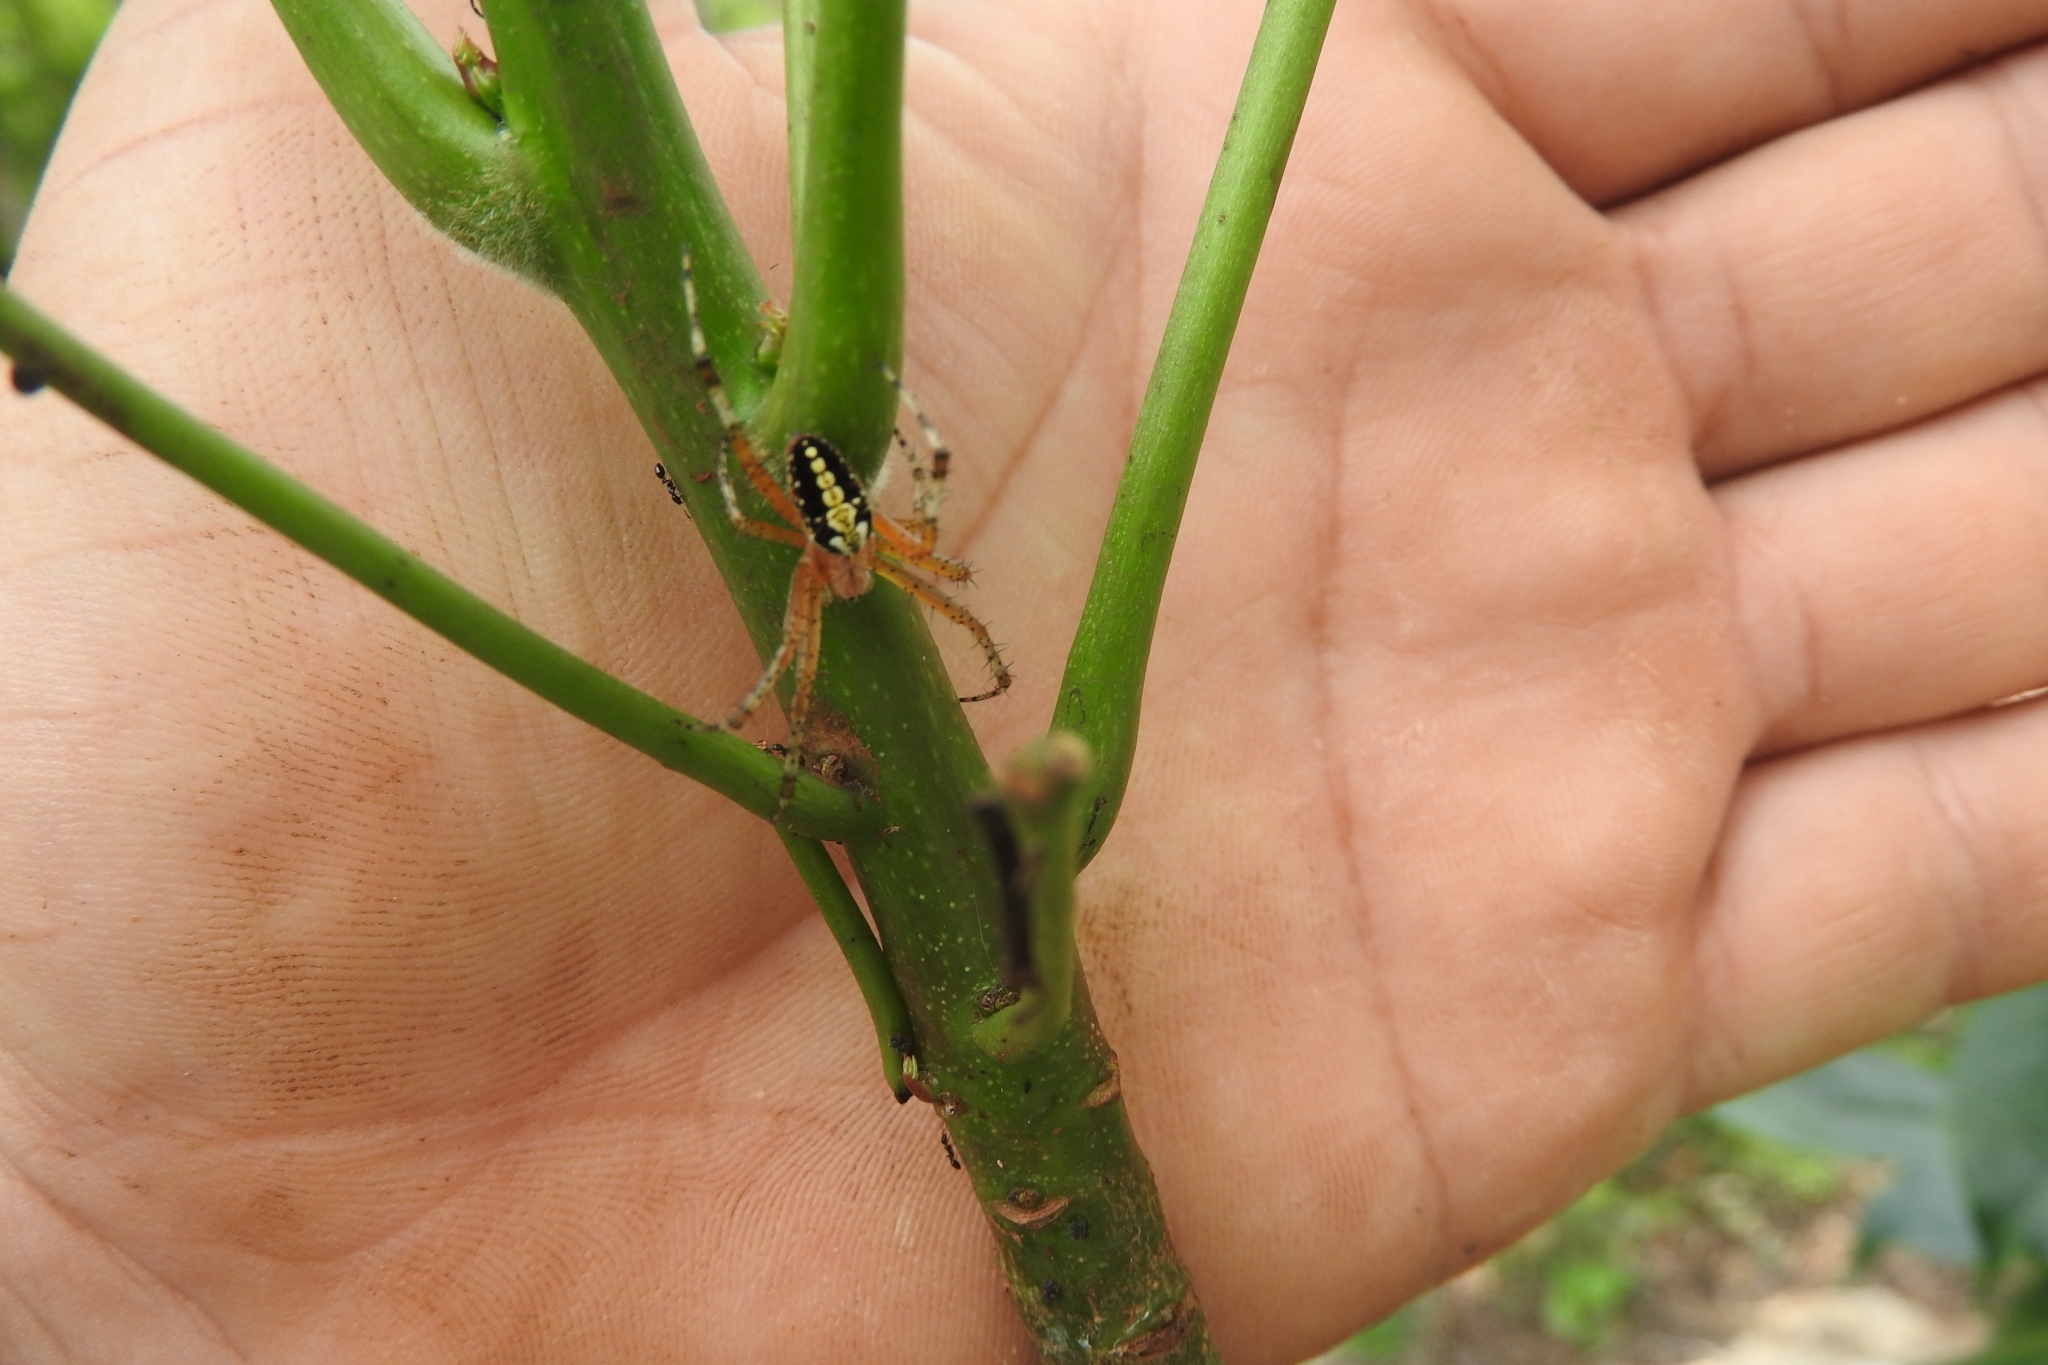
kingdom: Animalia
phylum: Arthropoda
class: Arachnida
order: Araneae
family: Araneidae
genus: Neoscona
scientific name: Neoscona oaxacensis
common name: Orb weavers
